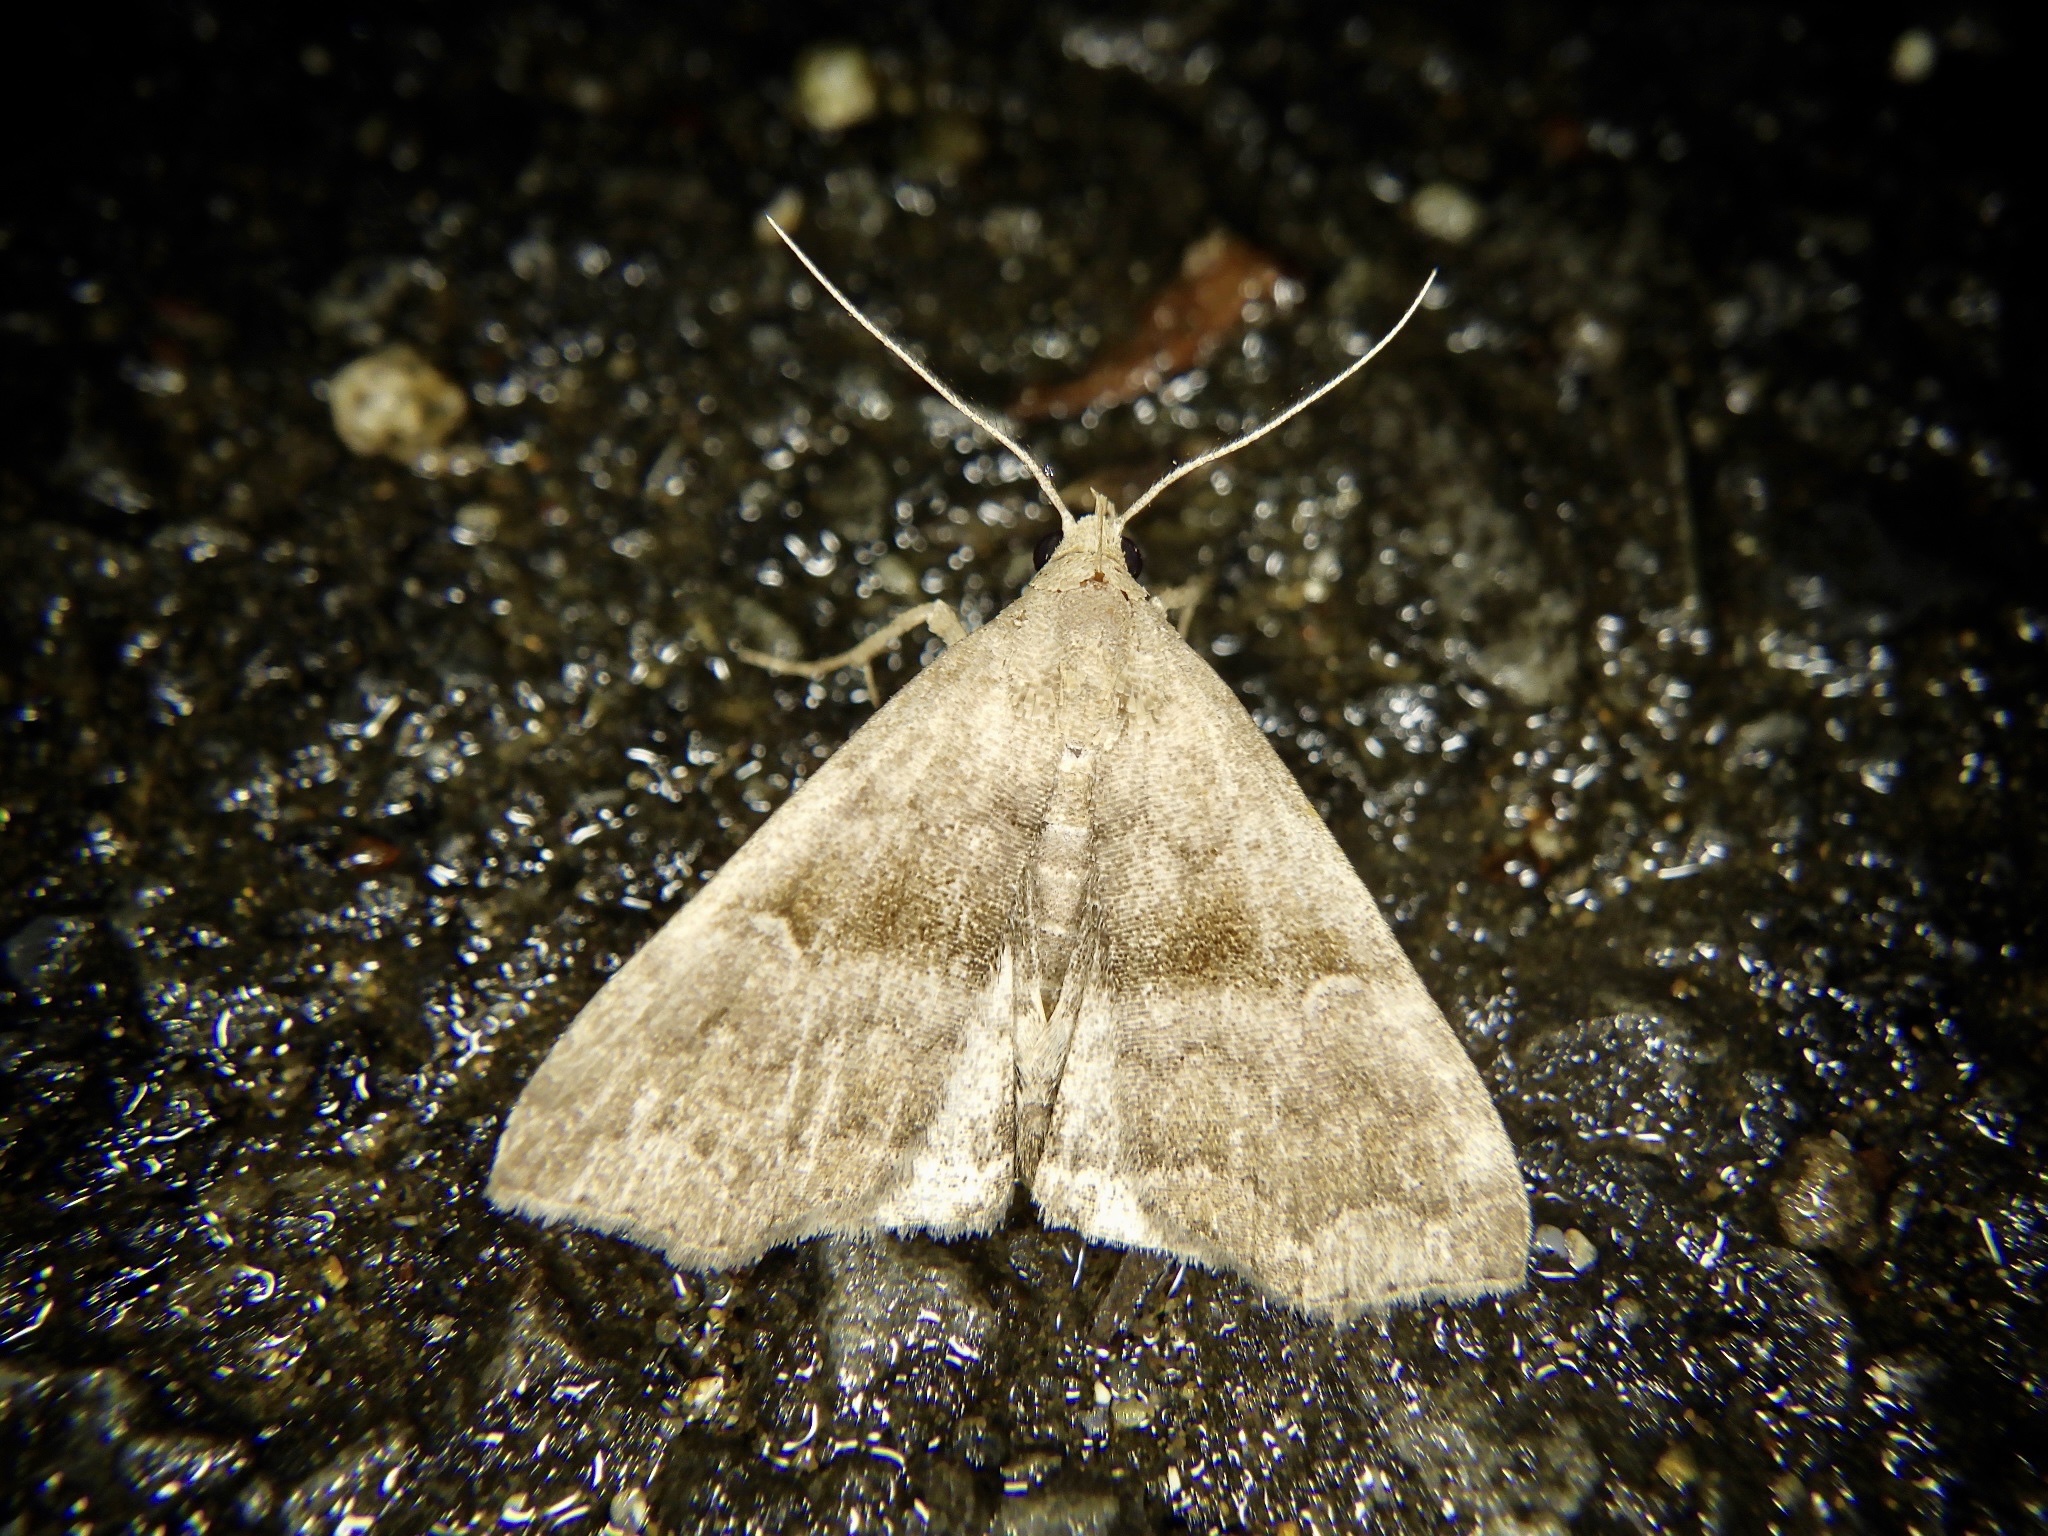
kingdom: Animalia
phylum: Arthropoda
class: Insecta
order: Lepidoptera
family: Erebidae
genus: Polypogon
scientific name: Polypogon Hipoepa fractalis
